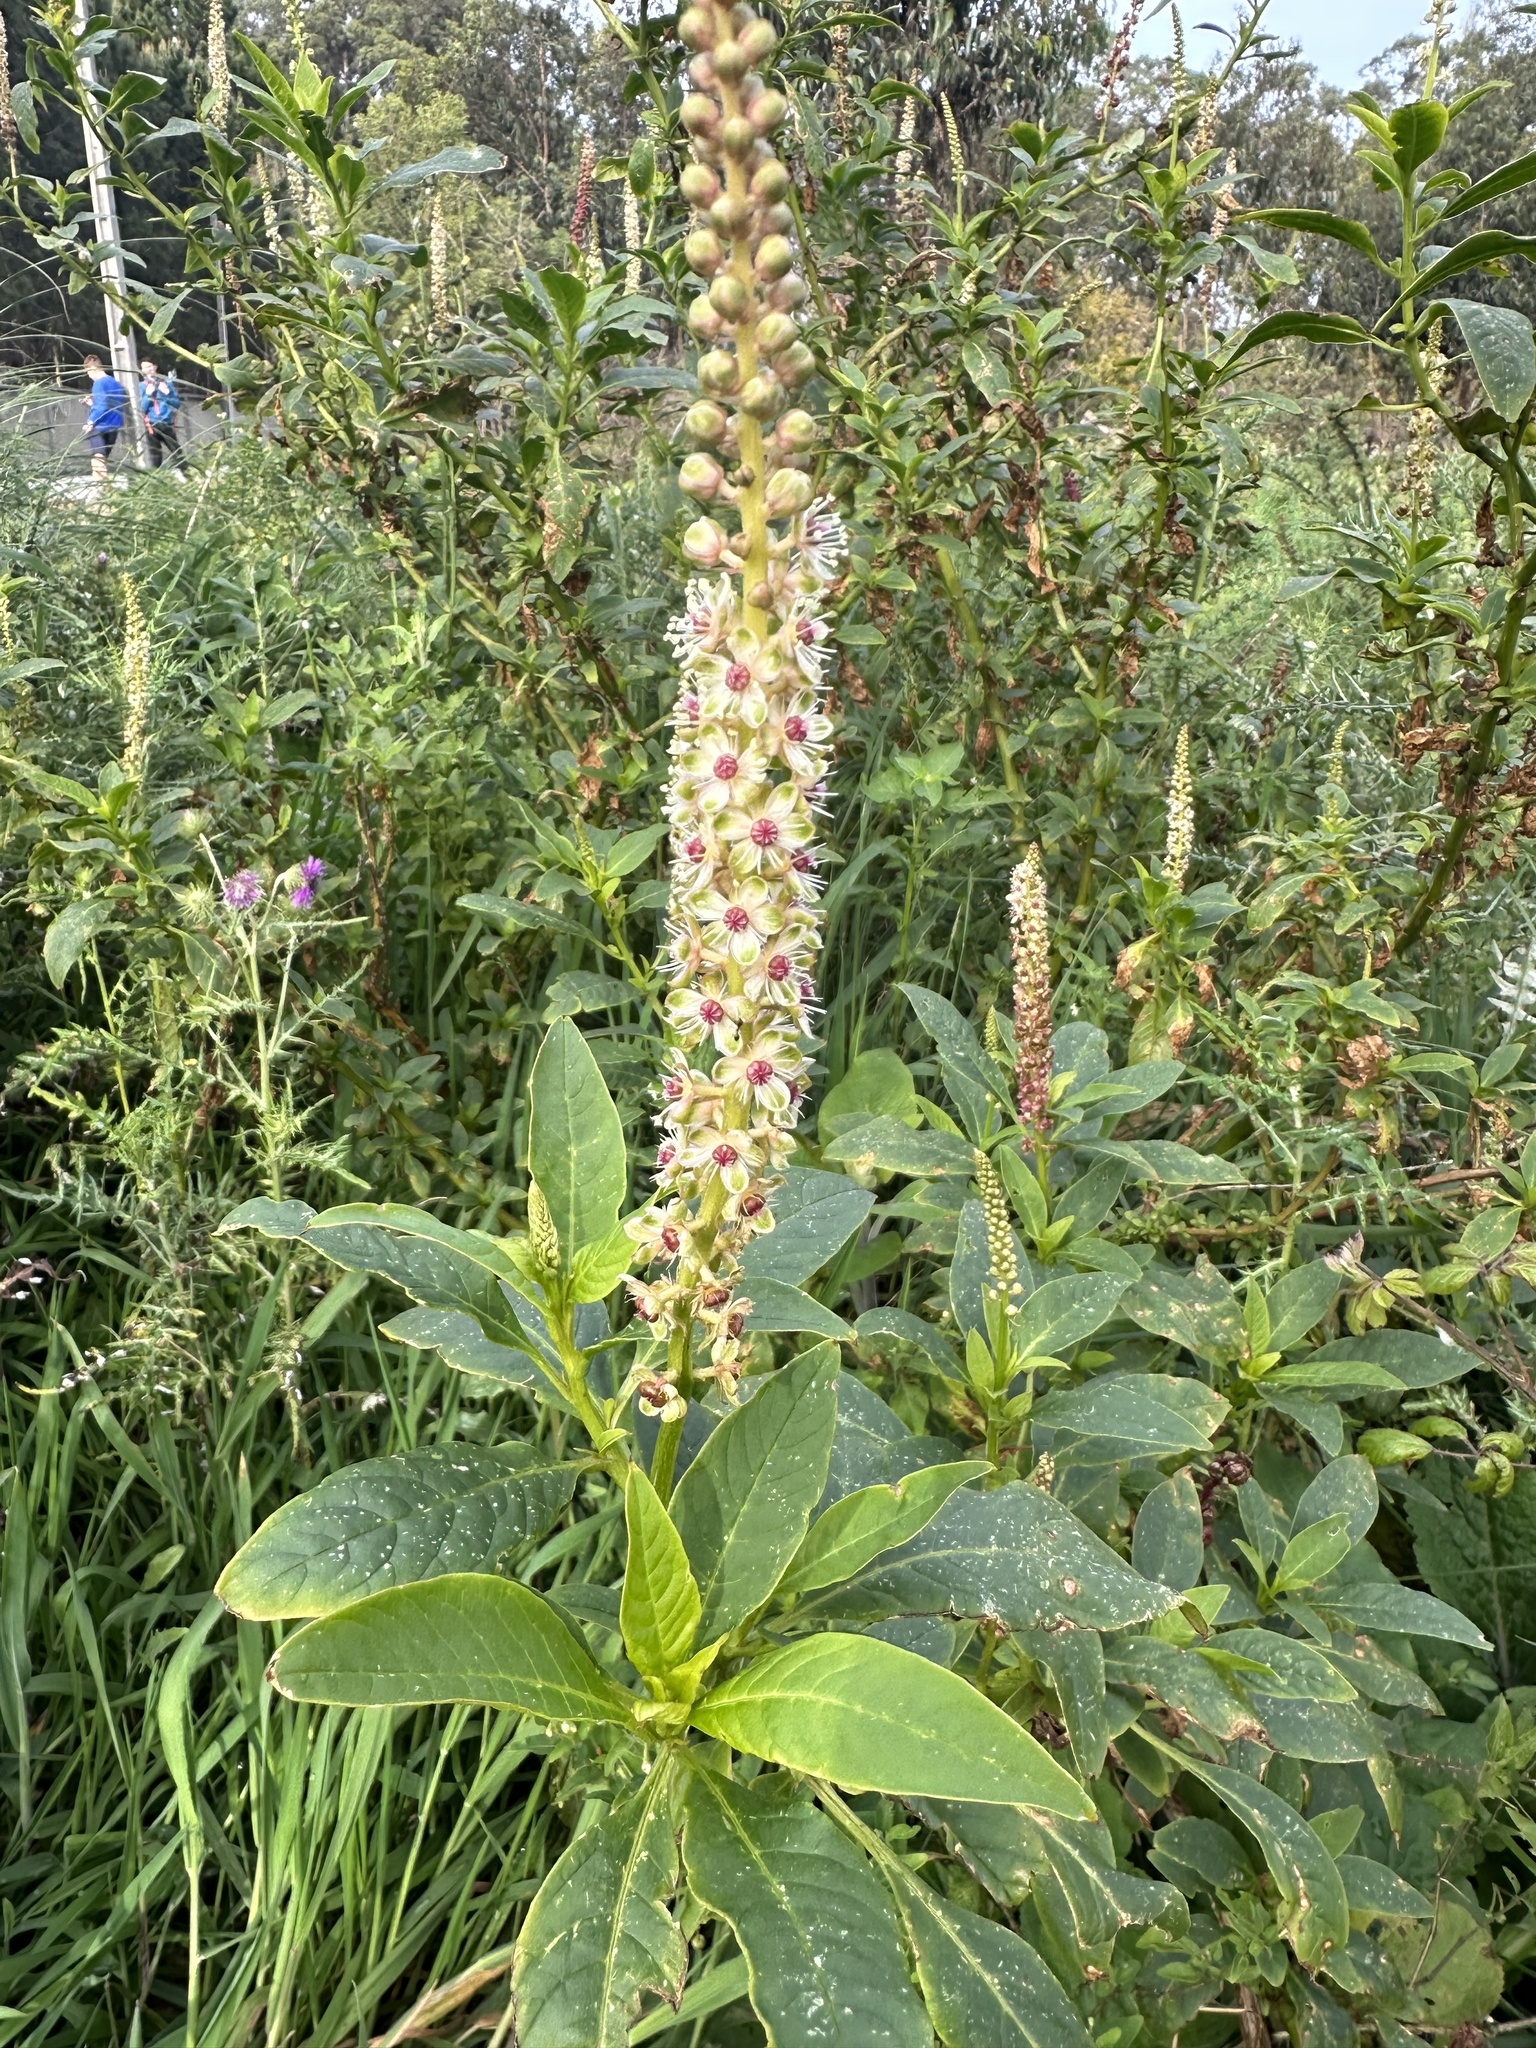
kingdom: Plantae
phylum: Tracheophyta
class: Magnoliopsida
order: Caryophyllales
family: Phytolaccaceae
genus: Phytolacca
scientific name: Phytolacca heterotepala
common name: Mexican pokeweed
